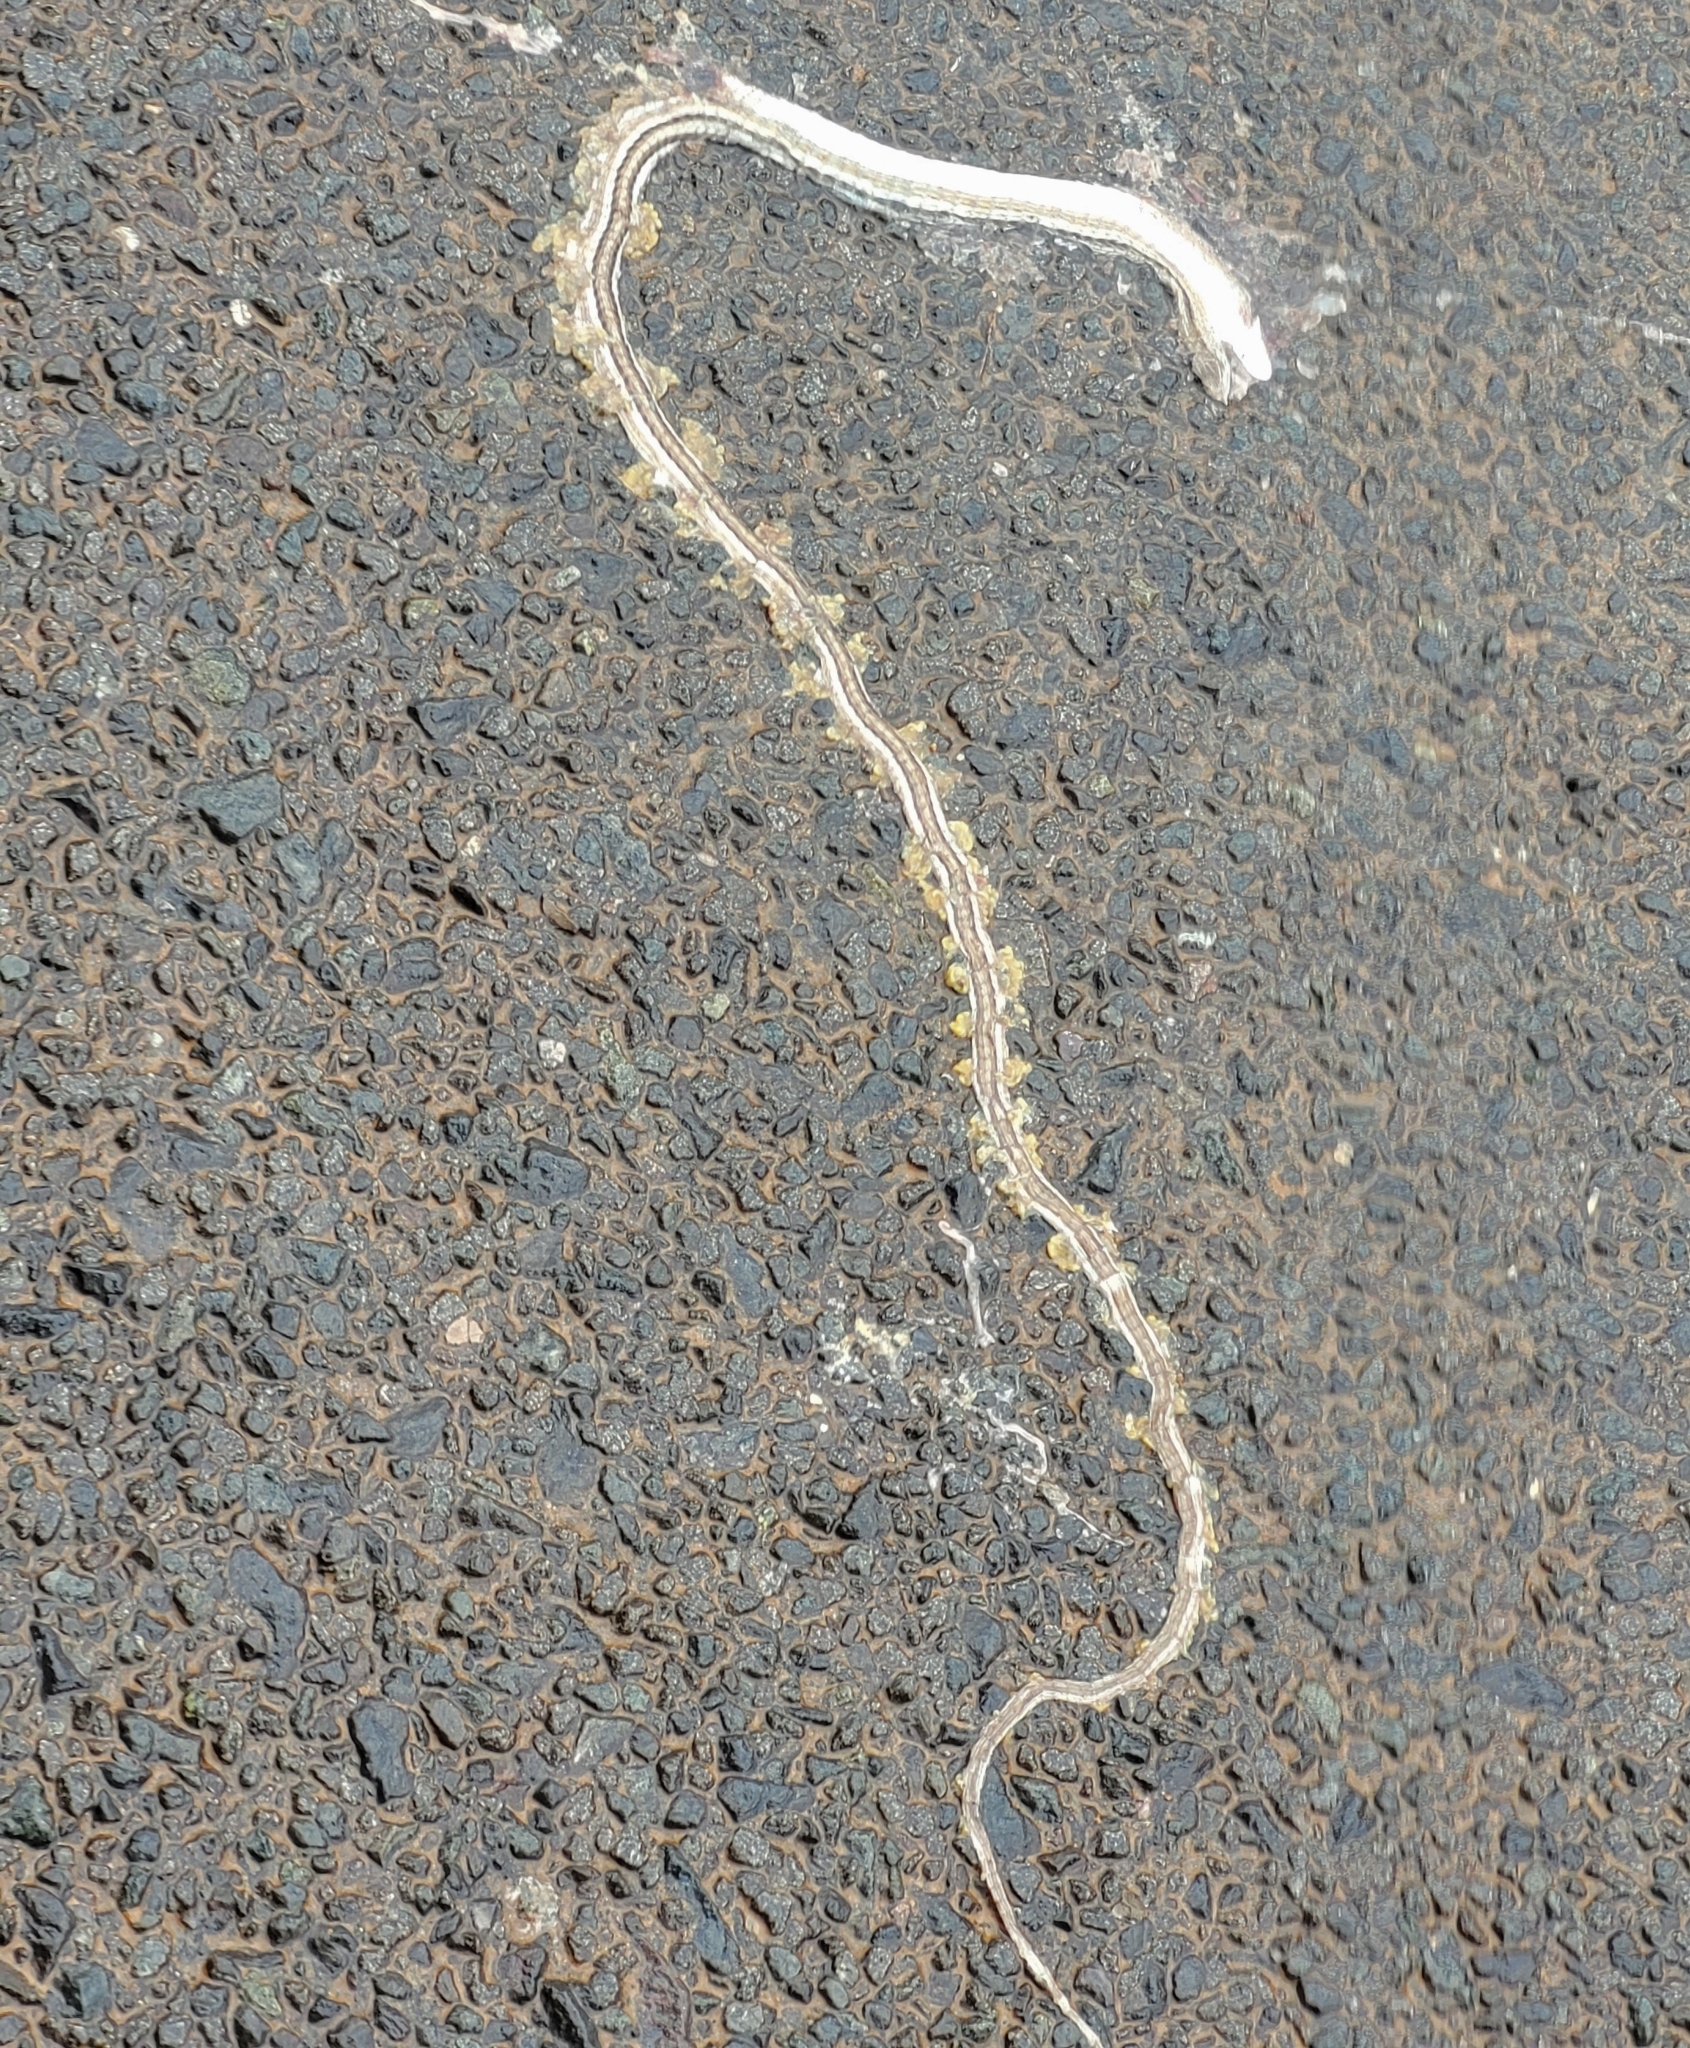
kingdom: Animalia
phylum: Chordata
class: Squamata
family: Cordylidae
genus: Chamaesaura
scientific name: Chamaesaura macrolepis
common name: Large-scaled grass lizard
